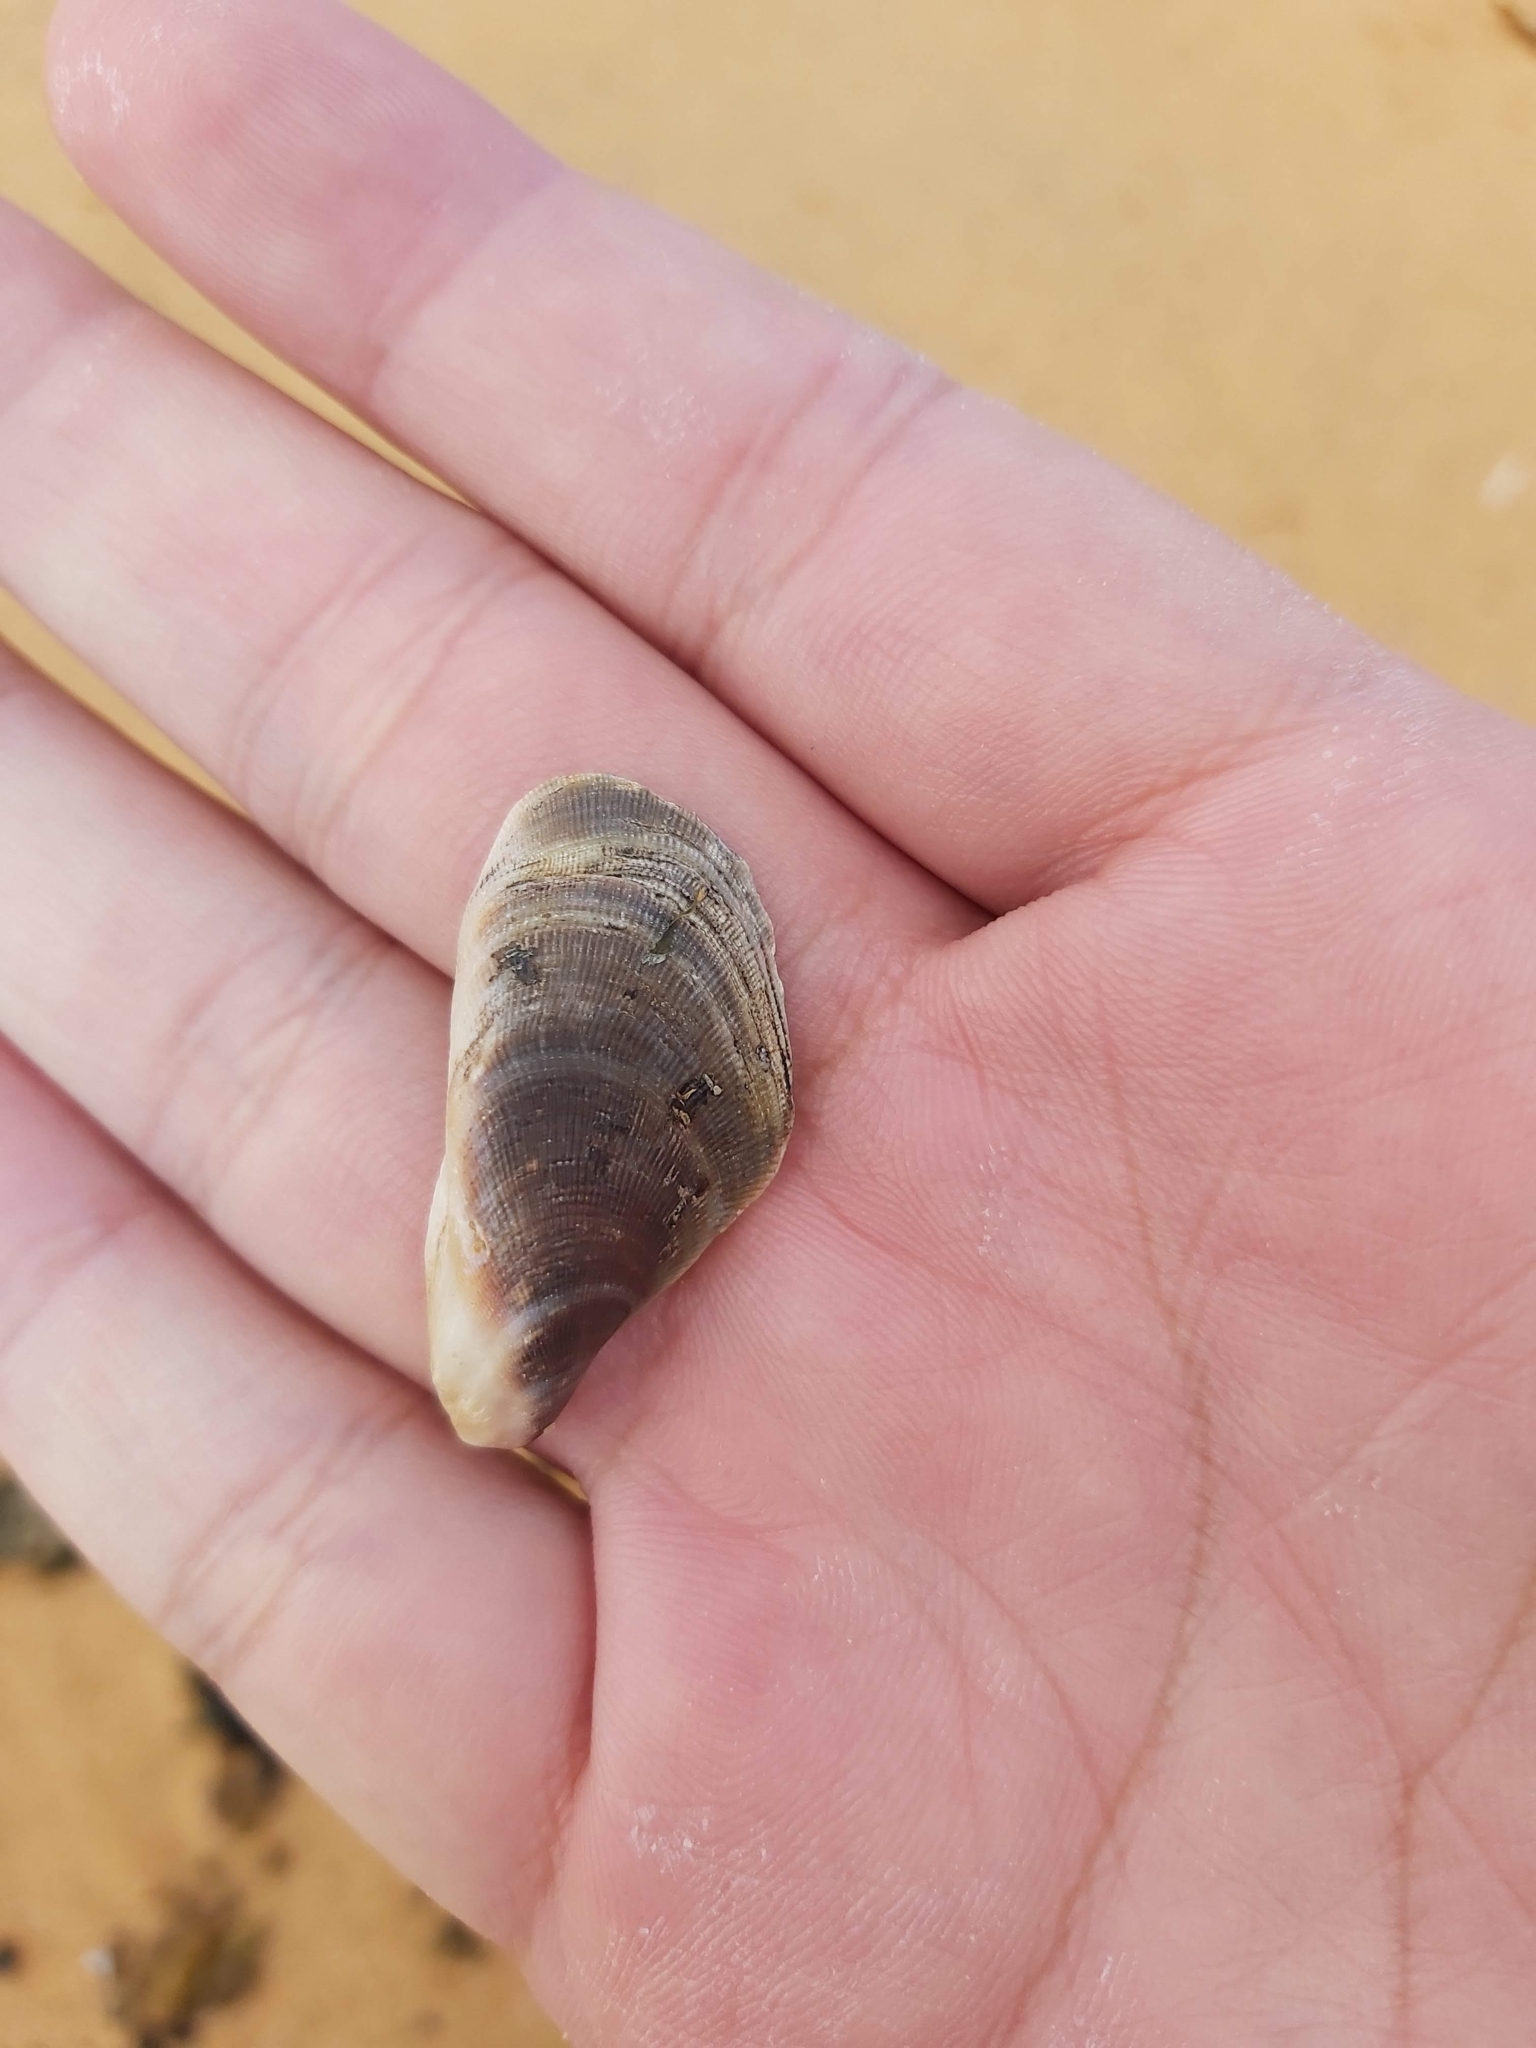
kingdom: Animalia
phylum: Mollusca
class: Bivalvia
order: Mytilida
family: Mytilidae
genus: Trichomya
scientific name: Trichomya hirsuta
